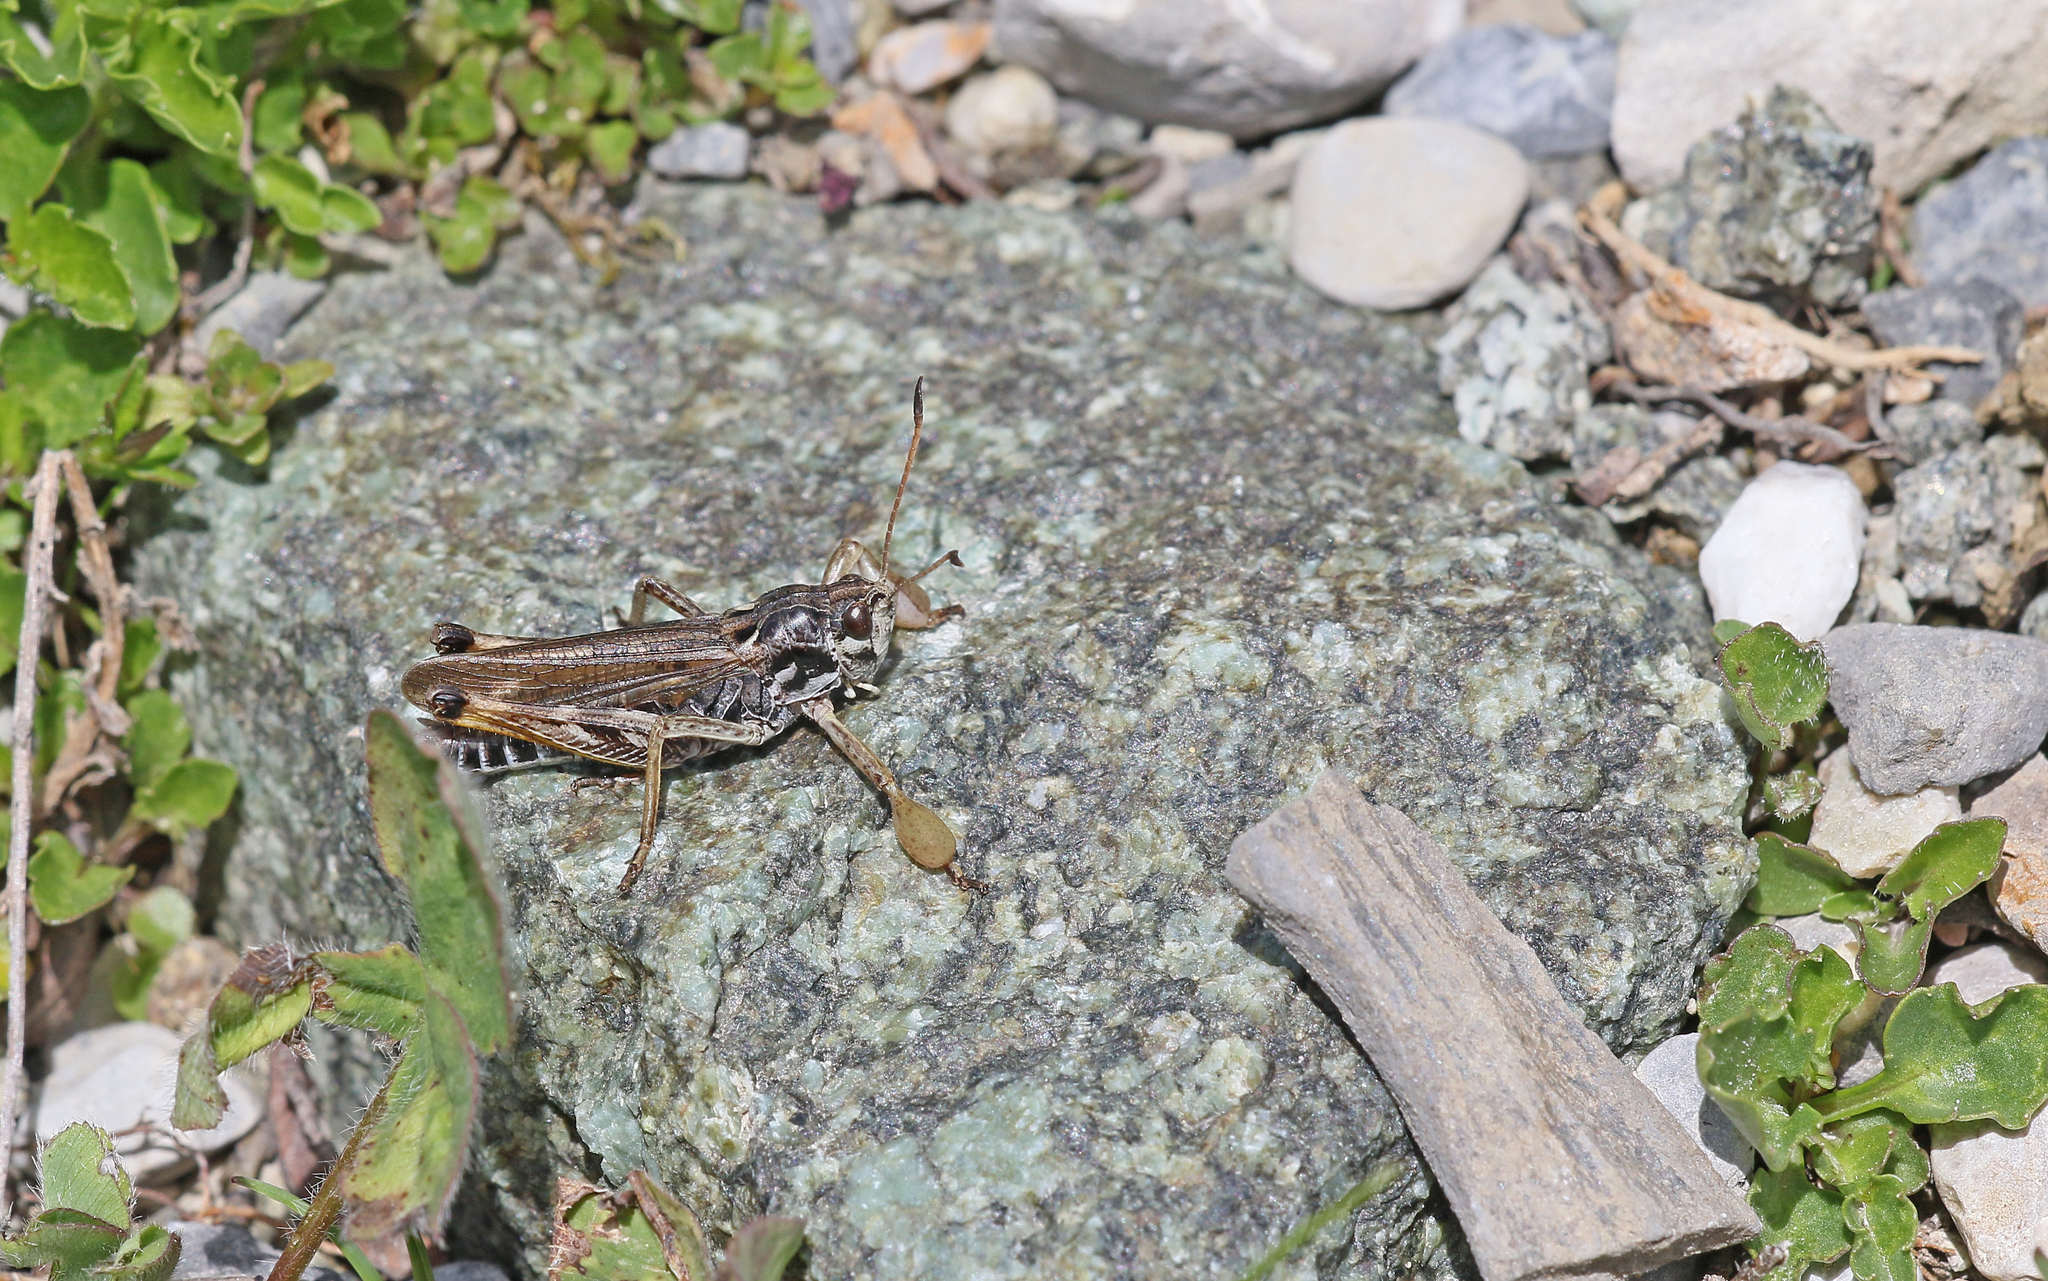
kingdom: Animalia
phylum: Arthropoda
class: Insecta
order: Orthoptera
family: Acrididae
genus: Gomphocerus
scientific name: Gomphocerus sibiricus
